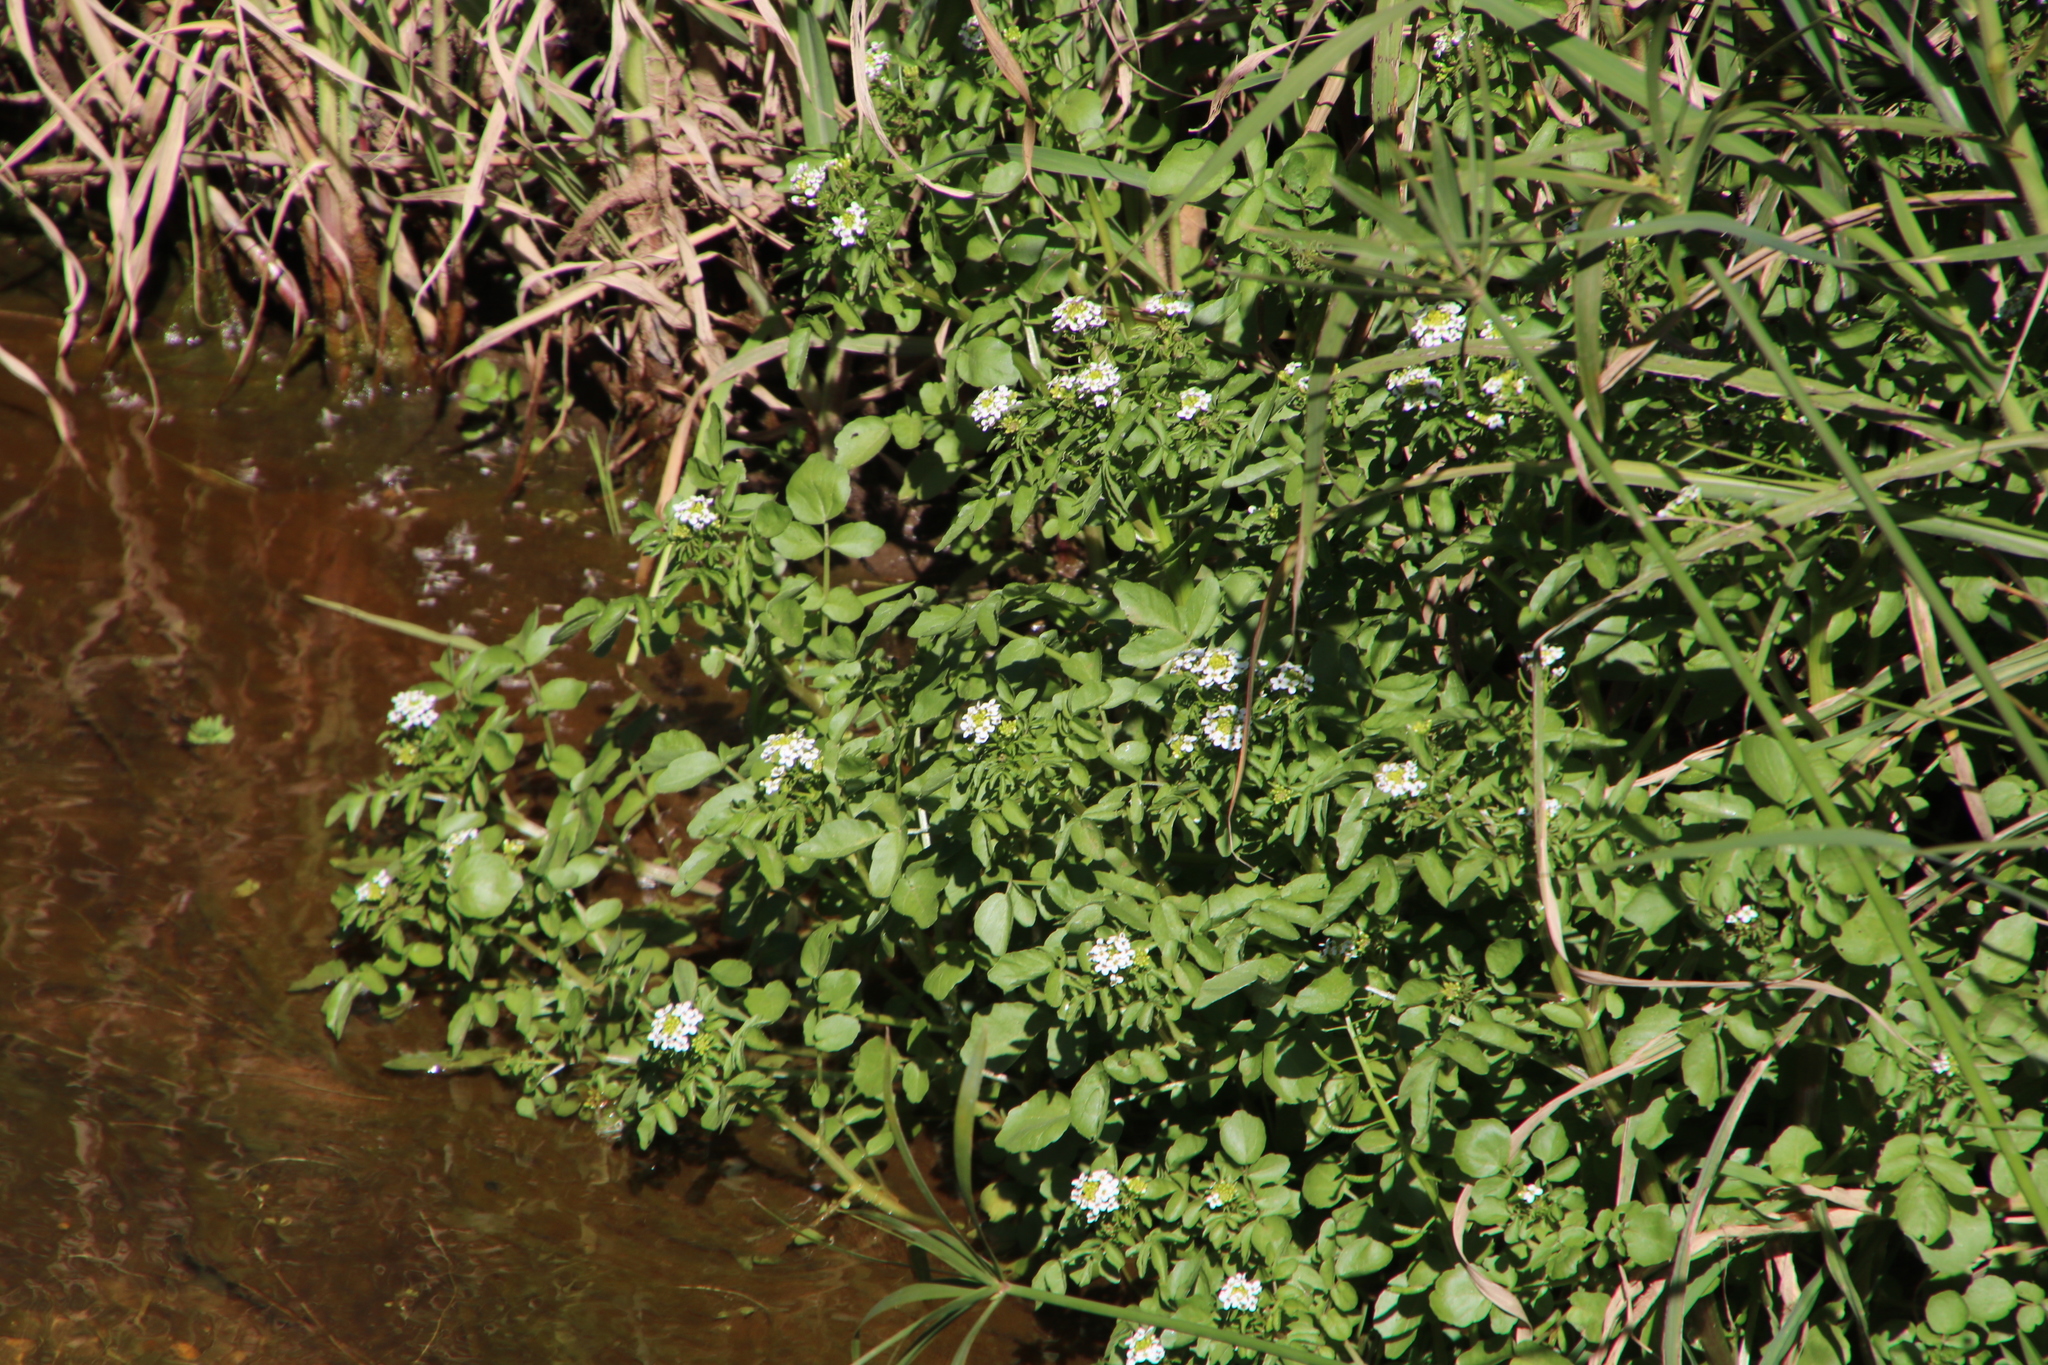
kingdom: Plantae
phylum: Tracheophyta
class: Magnoliopsida
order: Brassicales
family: Brassicaceae
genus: Nasturtium
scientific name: Nasturtium officinale
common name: Watercress
